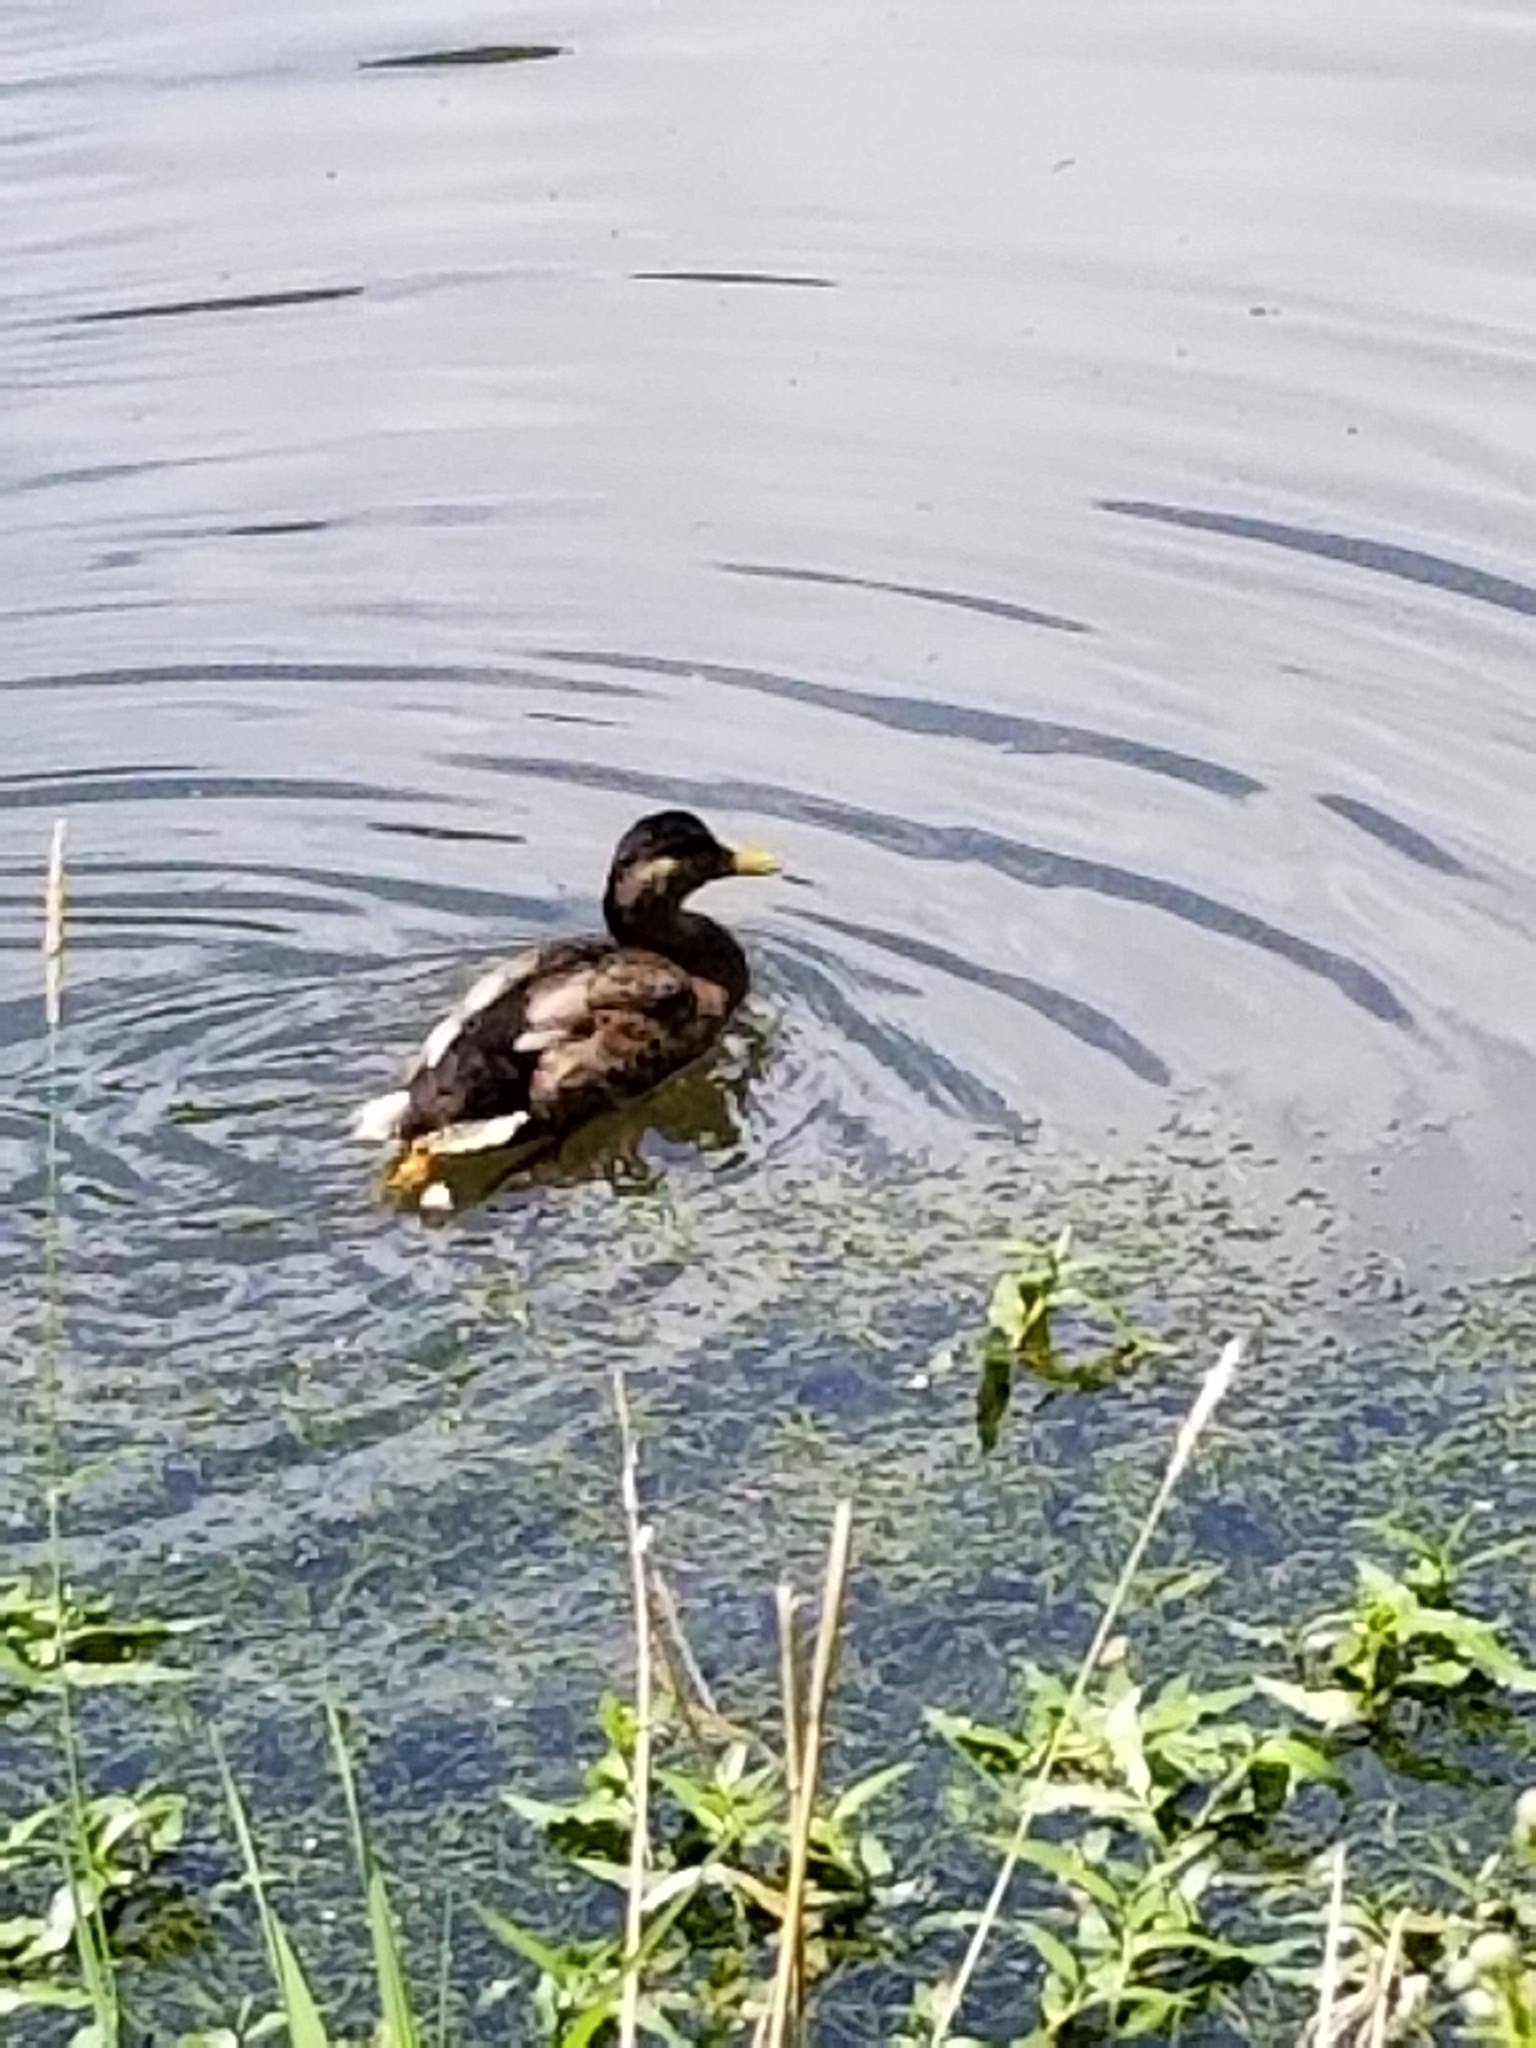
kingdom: Animalia
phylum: Chordata
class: Aves
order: Anseriformes
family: Anatidae
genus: Anas
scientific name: Anas platyrhynchos
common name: Mallard
